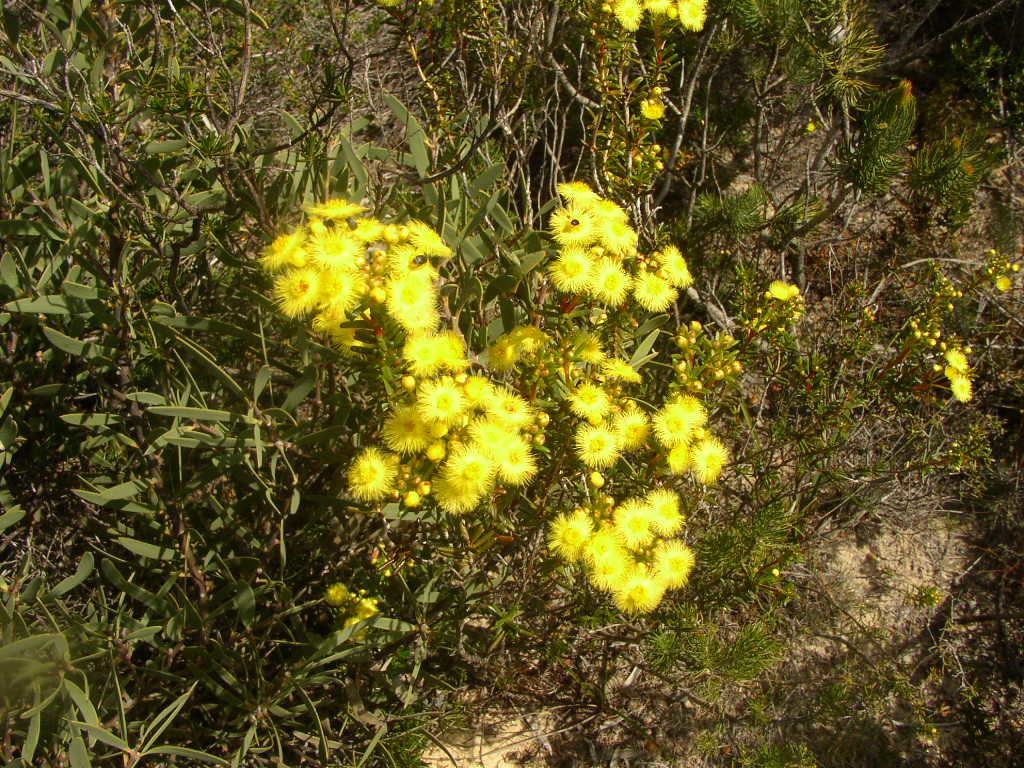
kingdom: Plantae
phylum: Tracheophyta
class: Magnoliopsida
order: Myrtales
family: Myrtaceae
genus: Verticordia
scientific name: Verticordia nobilis
